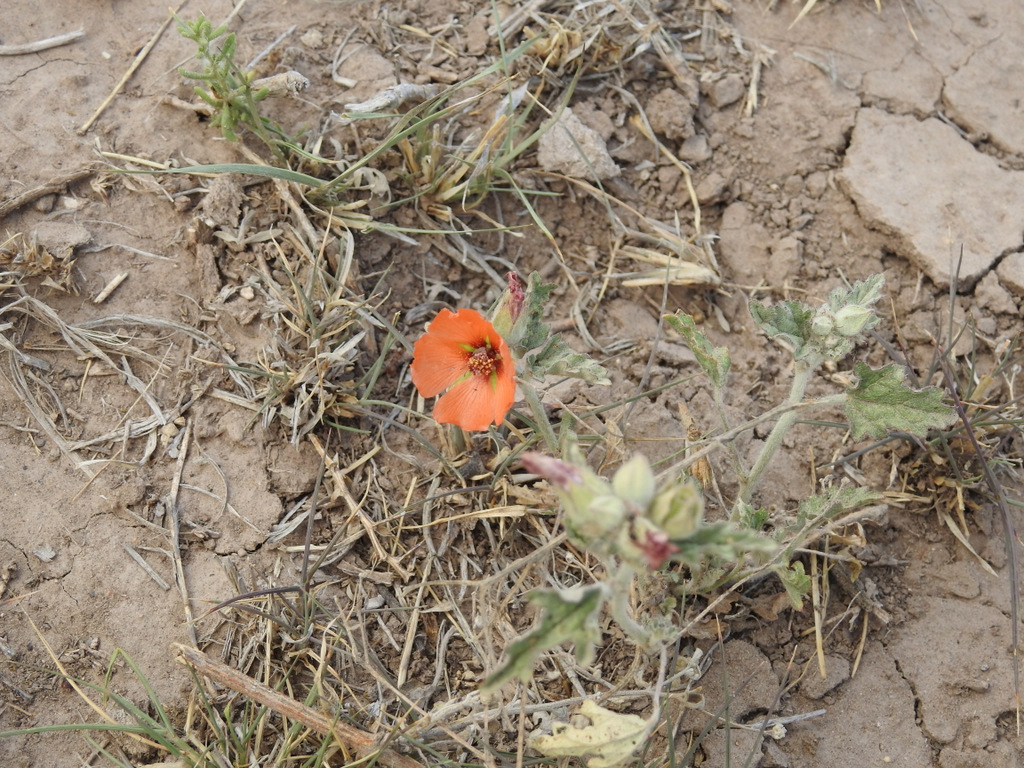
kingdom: Plantae
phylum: Tracheophyta
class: Magnoliopsida
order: Malvales
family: Malvaceae
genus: Sphaeralcea
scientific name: Sphaeralcea miniata
